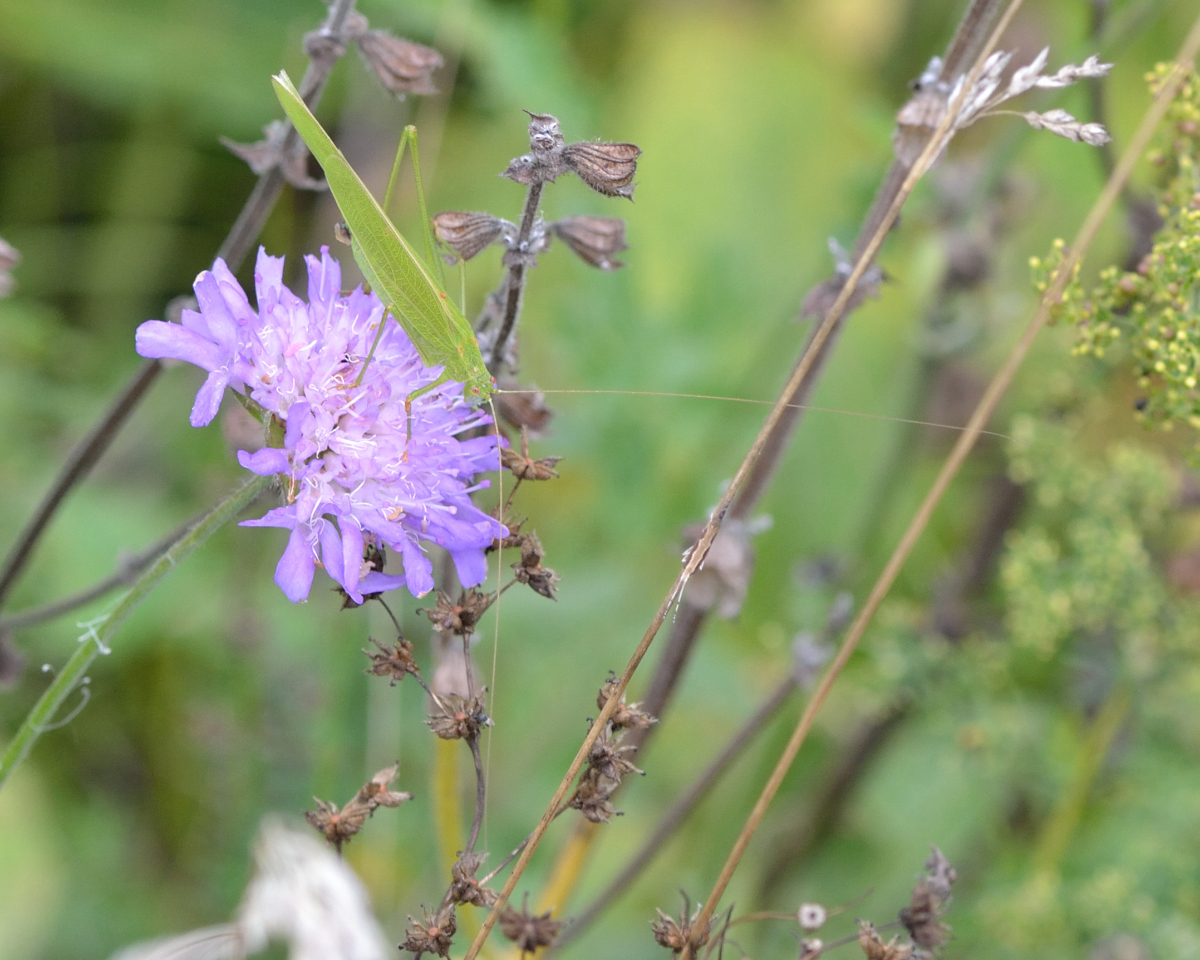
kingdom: Animalia
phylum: Arthropoda
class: Insecta
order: Orthoptera
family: Tettigoniidae
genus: Phaneroptera
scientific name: Phaneroptera falcata
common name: Sickle-bearing bush-cricket
